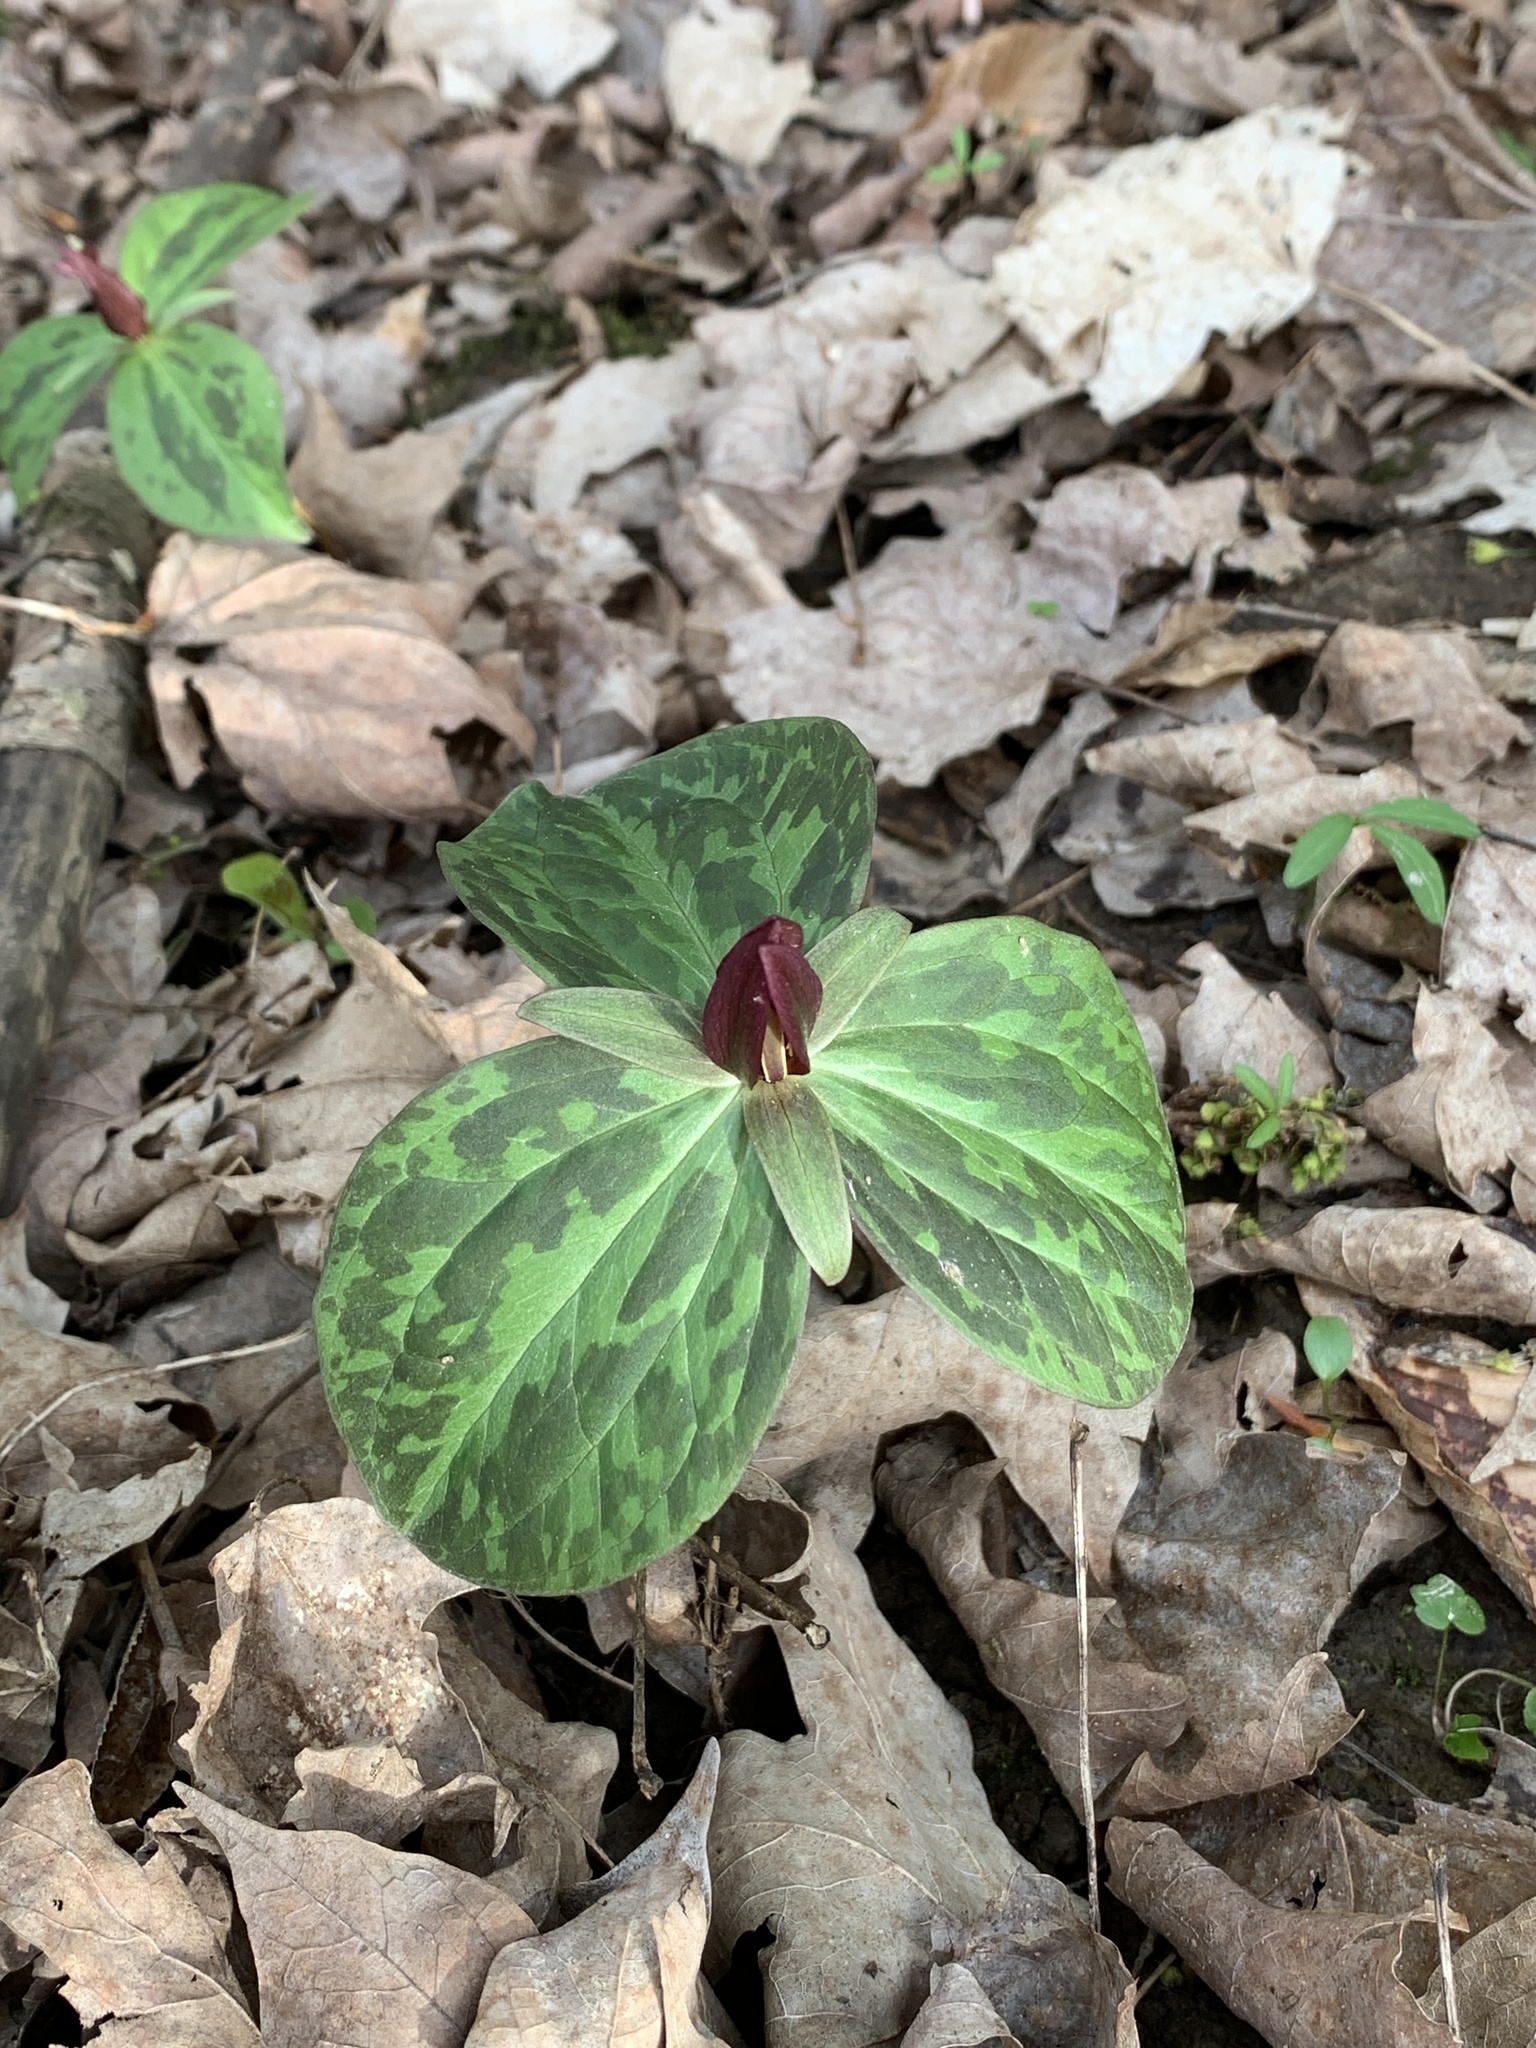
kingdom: Plantae
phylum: Tracheophyta
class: Liliopsida
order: Liliales
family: Melanthiaceae
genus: Trillium
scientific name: Trillium sessile
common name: Sessile trillium
